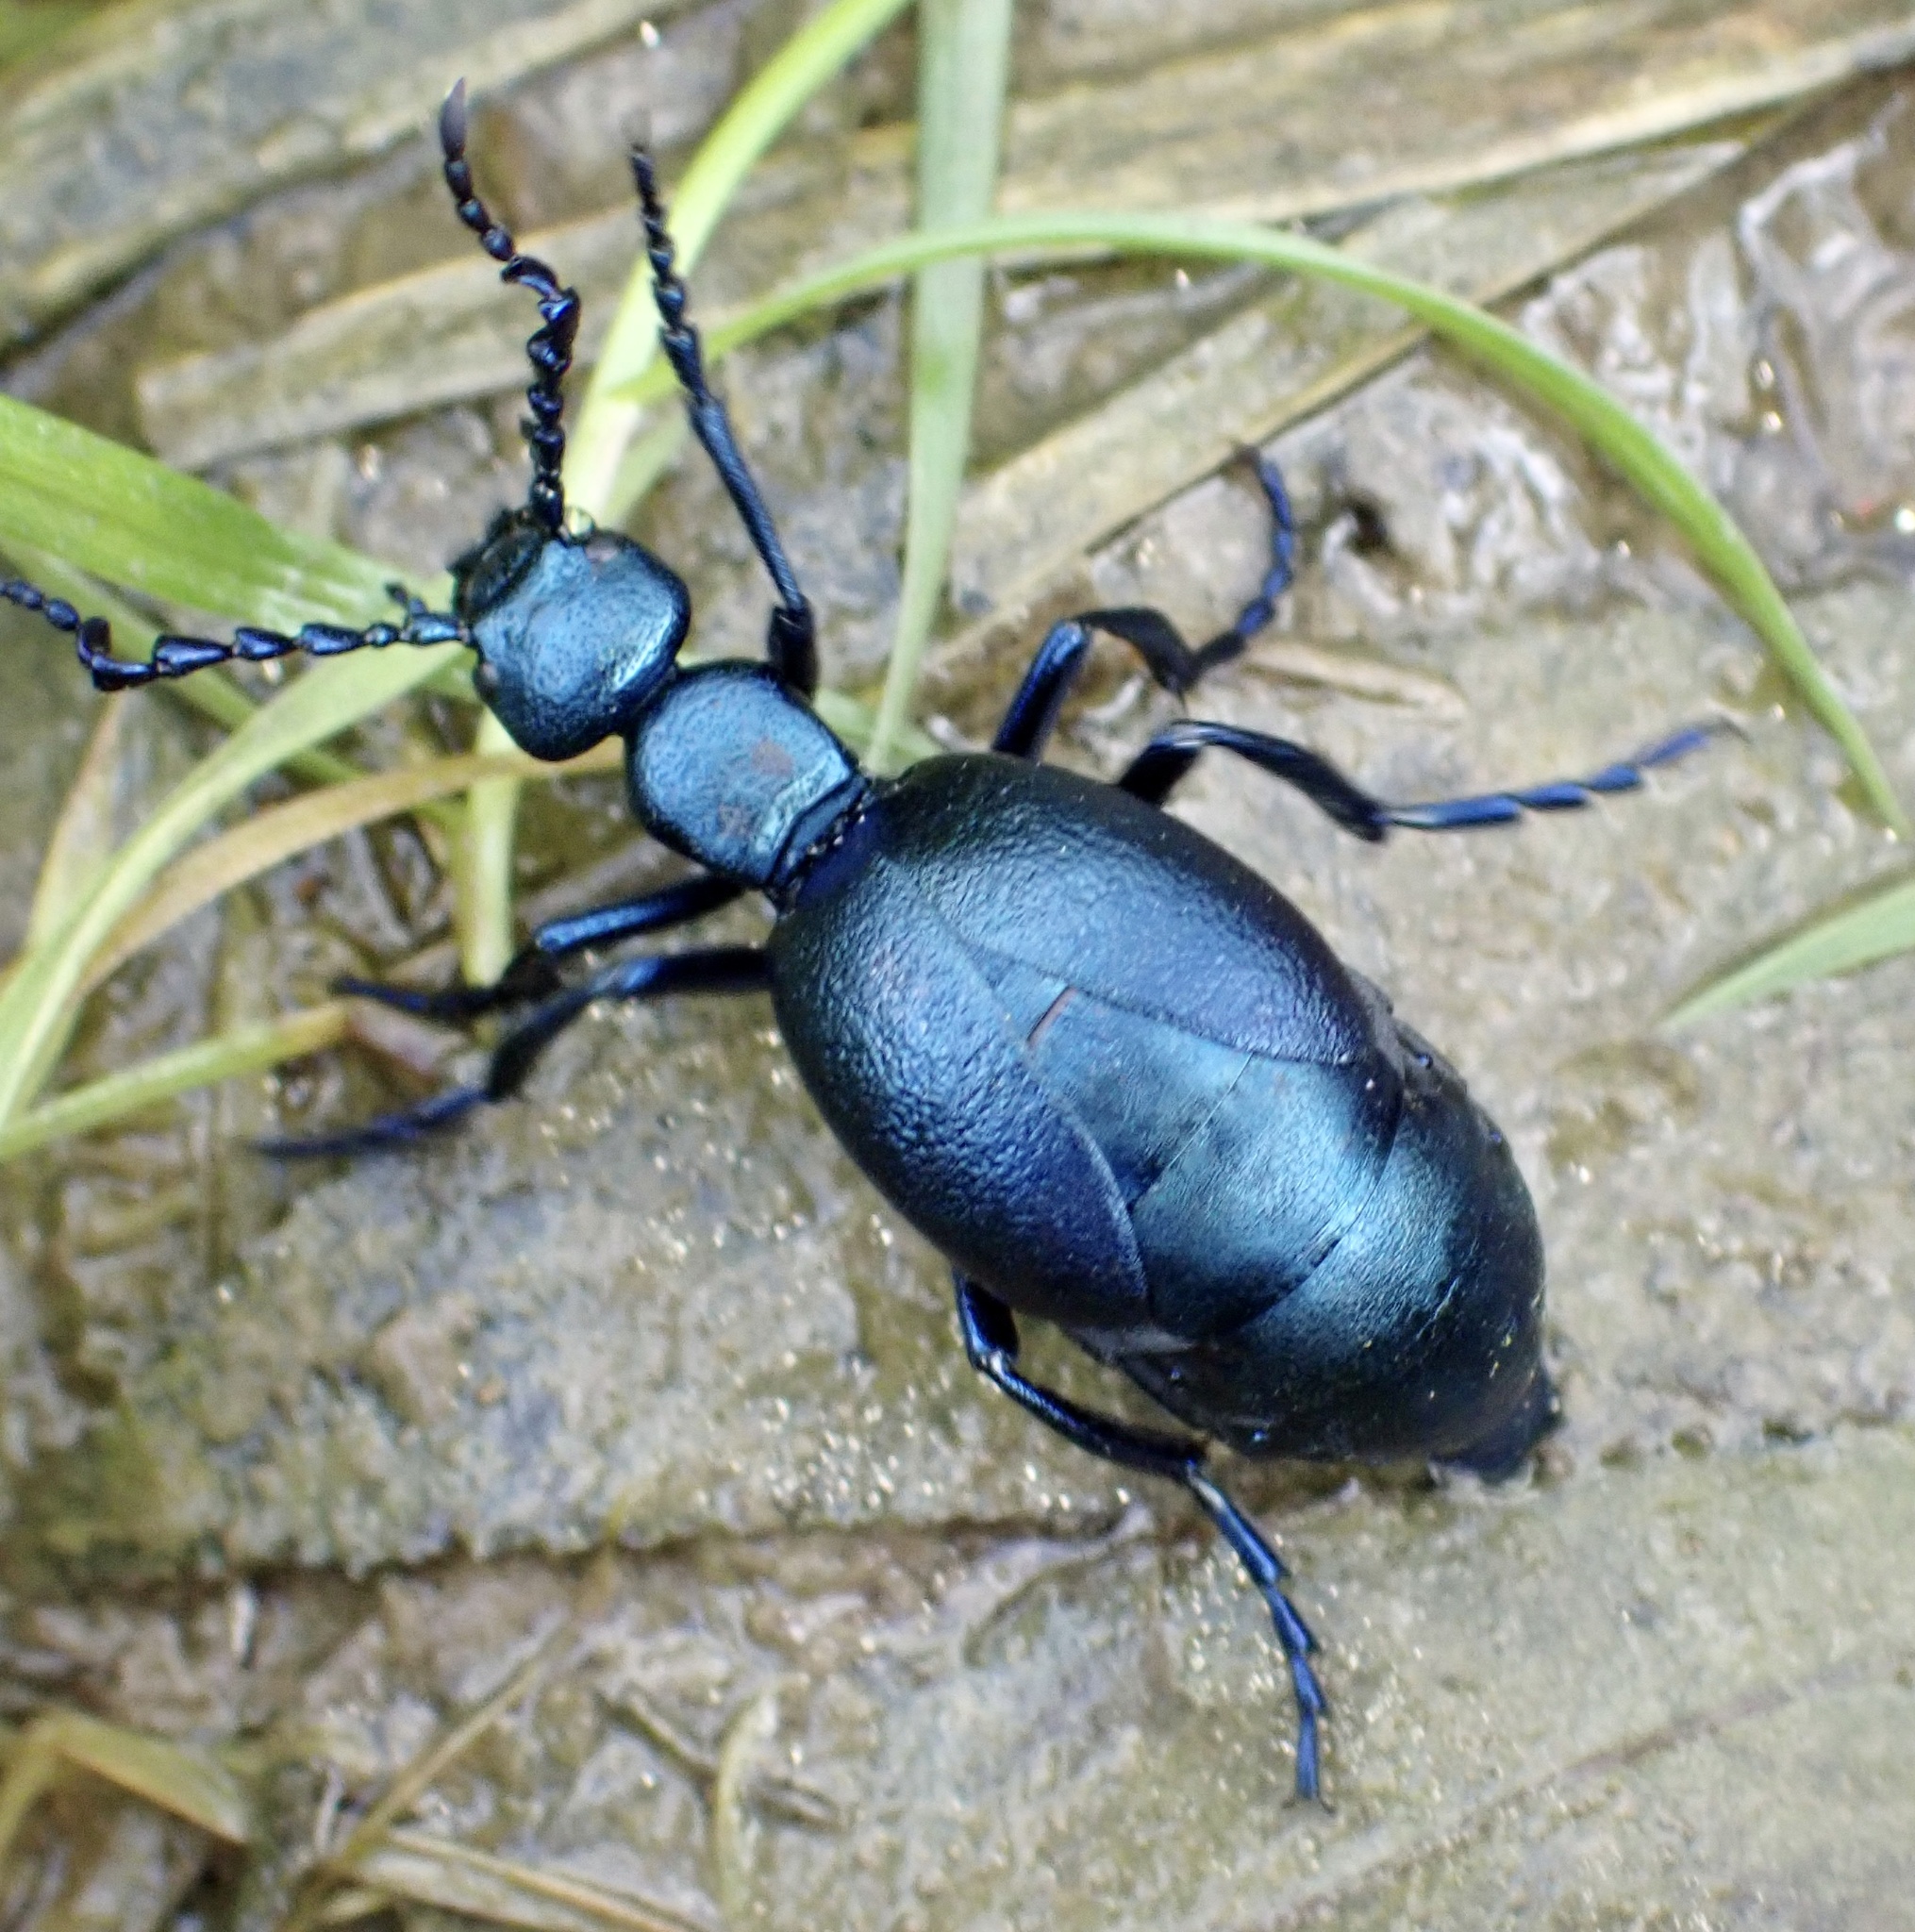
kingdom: Animalia
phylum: Arthropoda
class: Insecta
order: Coleoptera
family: Meloidae
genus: Meloe
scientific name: Meloe violaceus
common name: Violet oil-beetle
